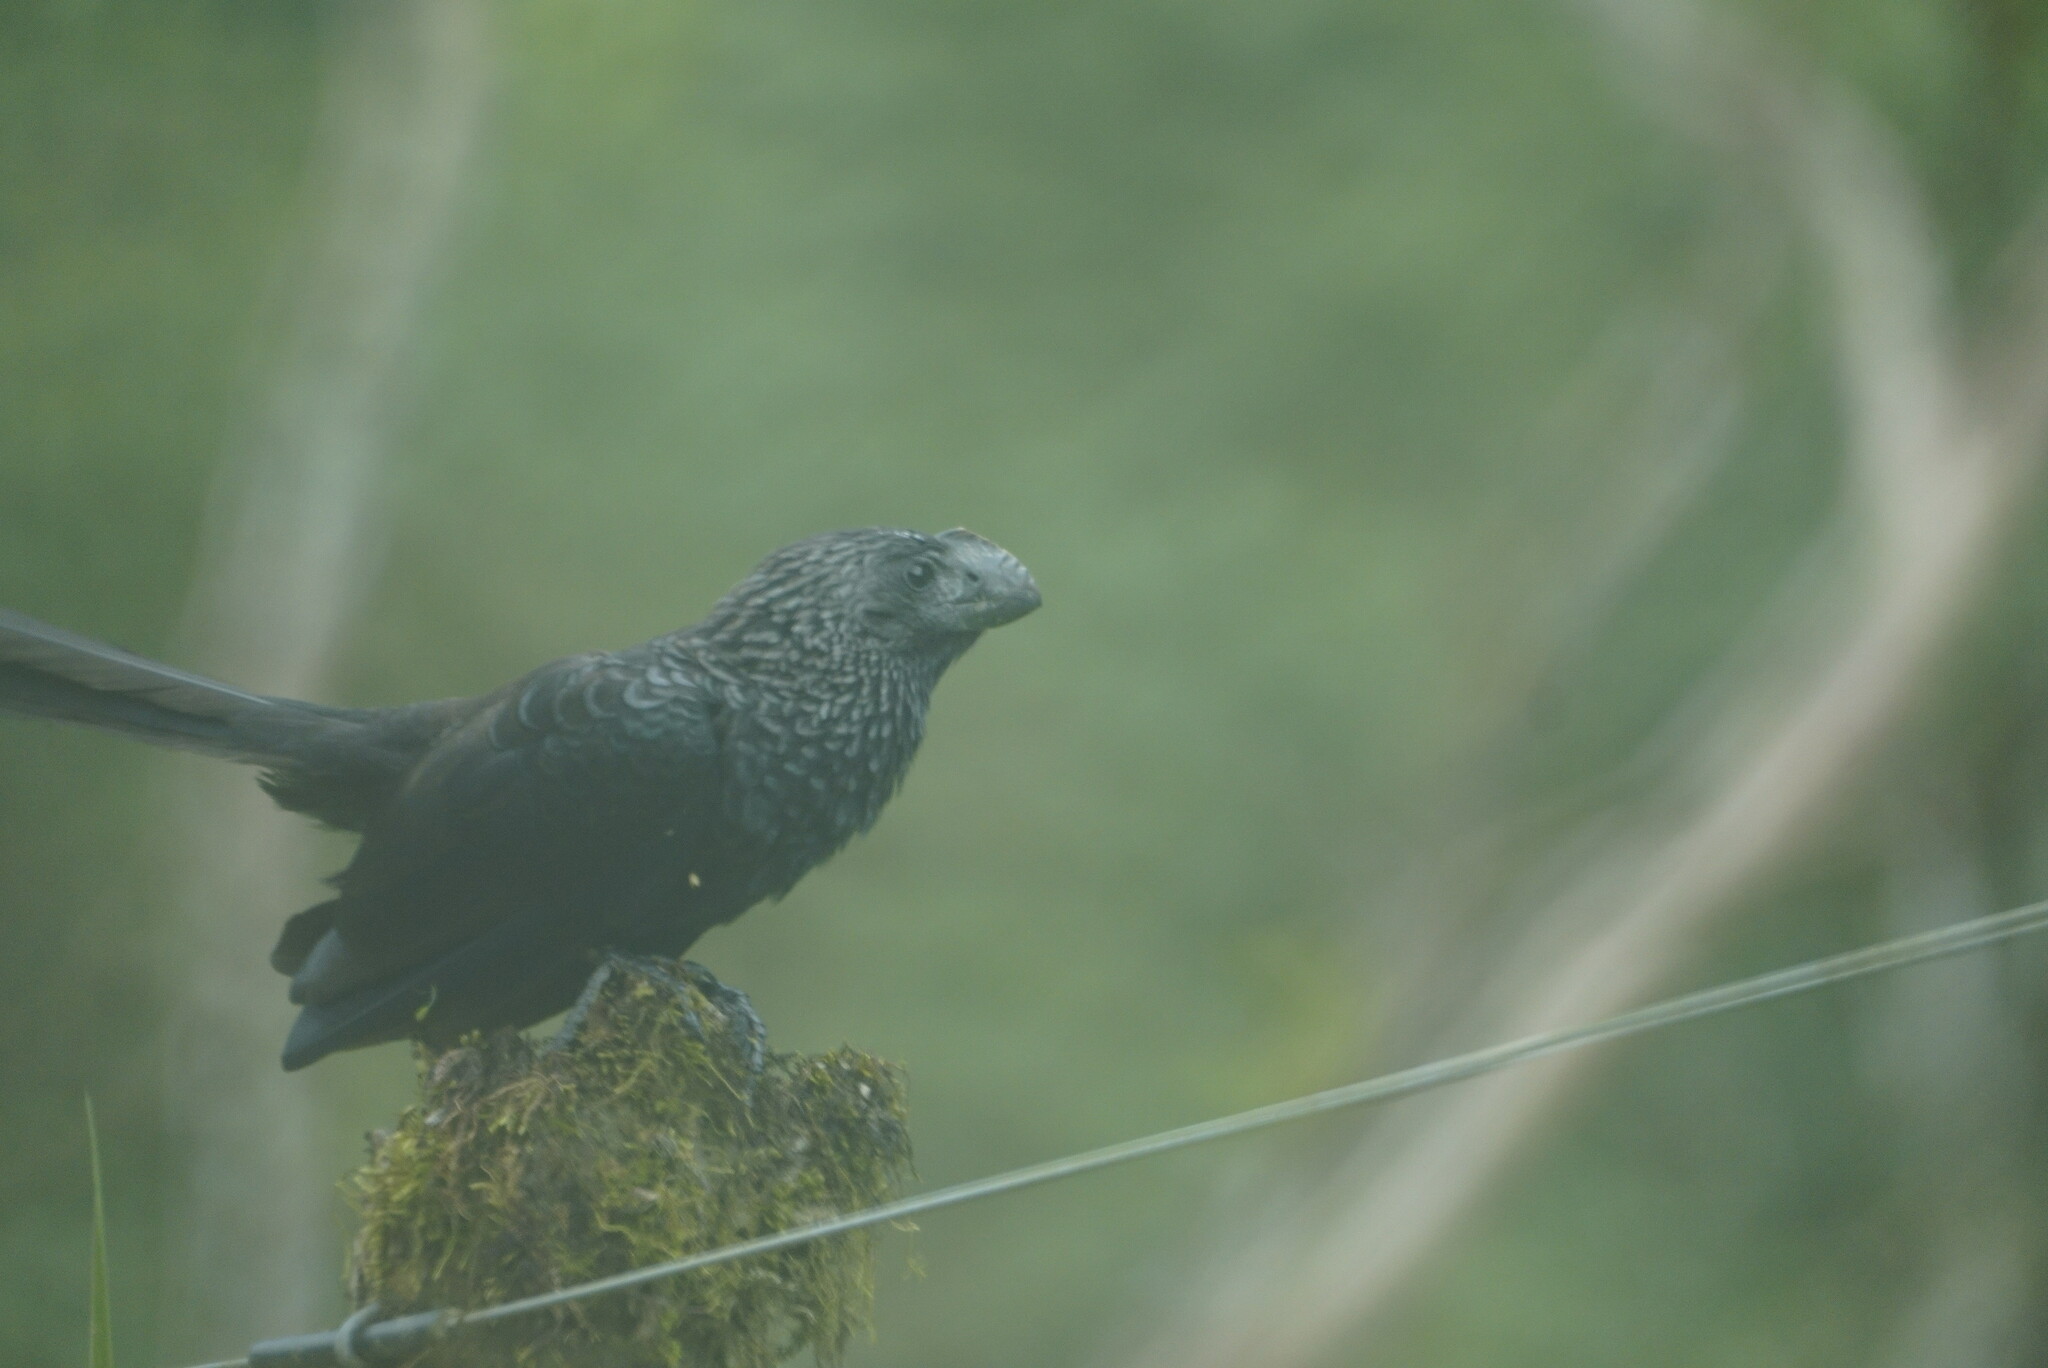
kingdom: Animalia
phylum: Chordata
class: Aves
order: Cuculiformes
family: Cuculidae
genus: Crotophaga
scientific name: Crotophaga ani
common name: Smooth-billed ani
